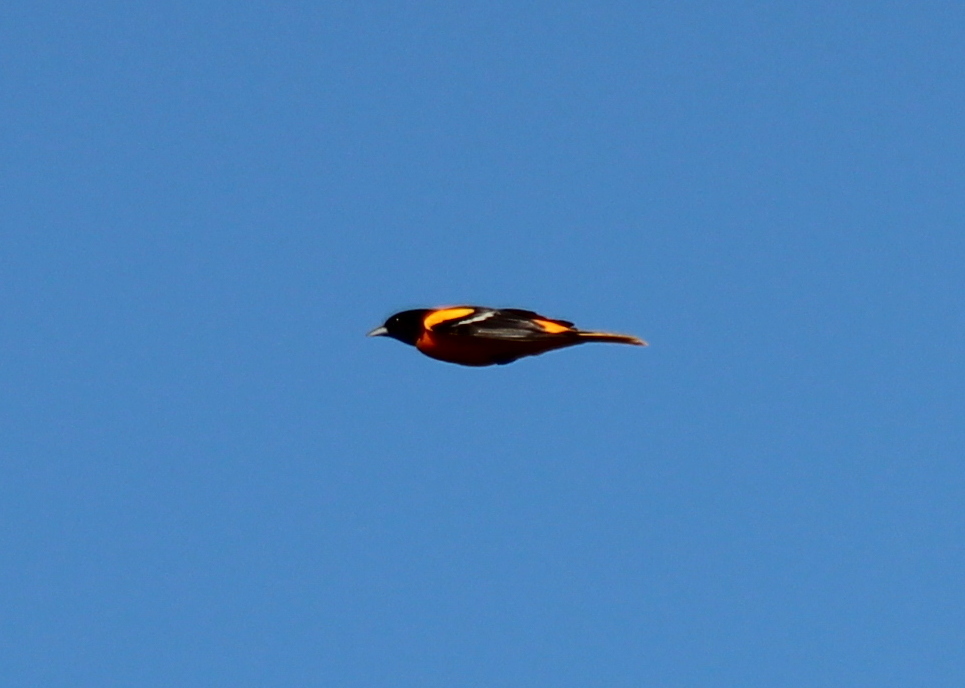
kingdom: Animalia
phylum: Chordata
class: Aves
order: Passeriformes
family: Icteridae
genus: Icterus
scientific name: Icterus galbula
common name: Baltimore oriole
